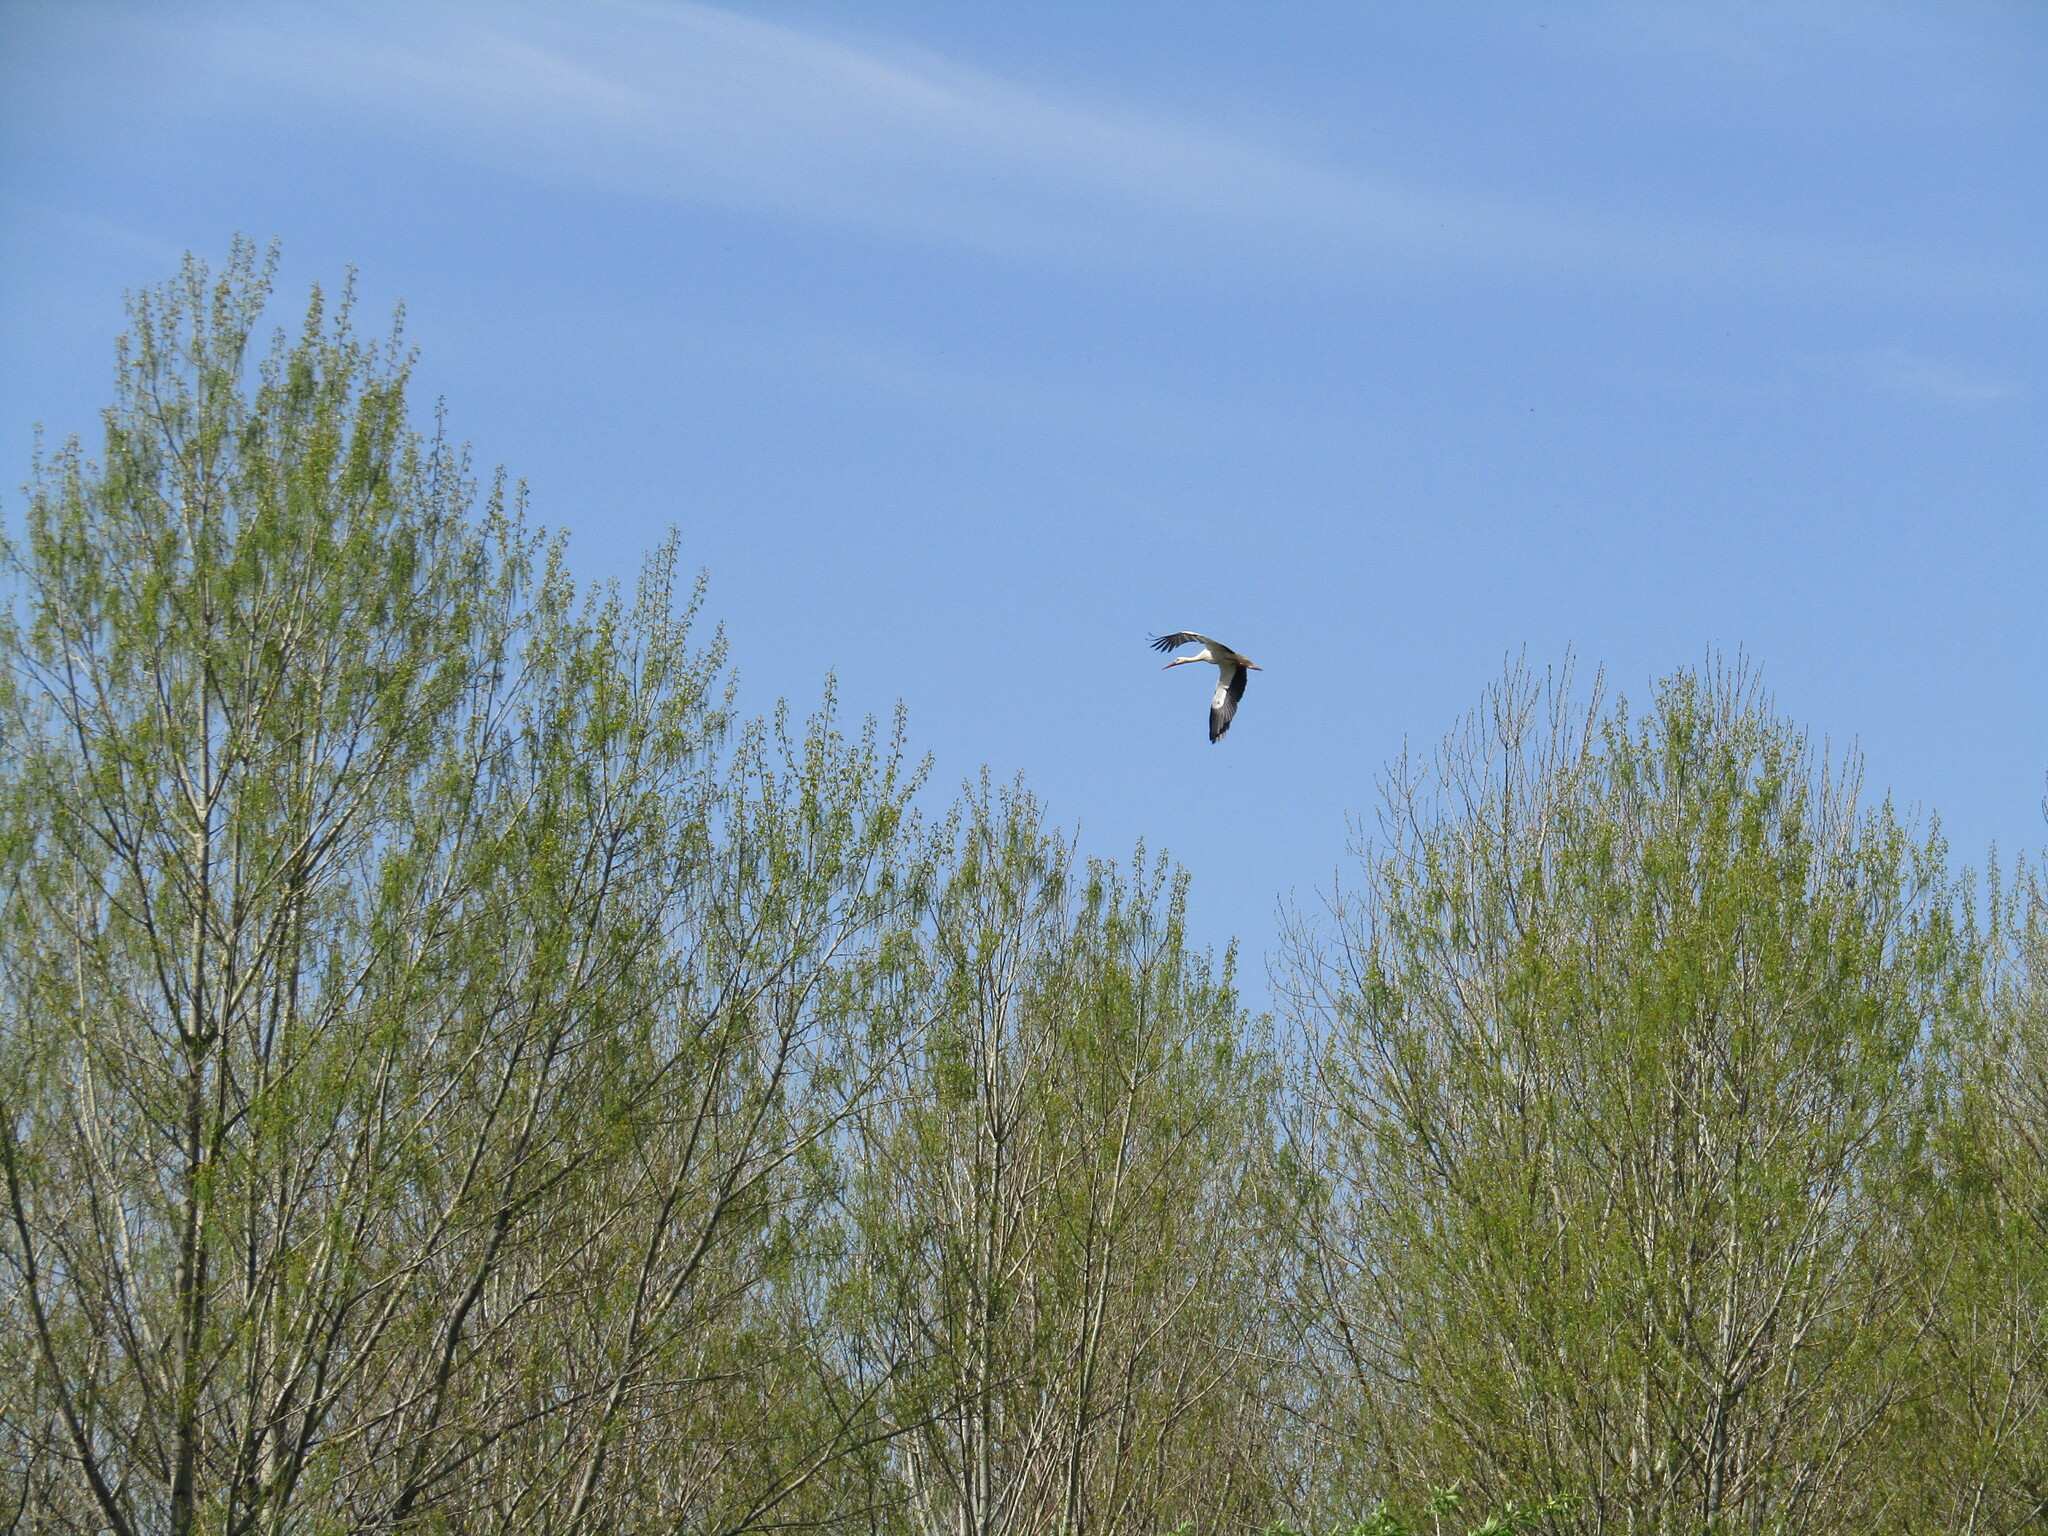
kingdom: Animalia
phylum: Chordata
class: Aves
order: Ciconiiformes
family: Ciconiidae
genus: Ciconia
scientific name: Ciconia ciconia
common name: White stork
